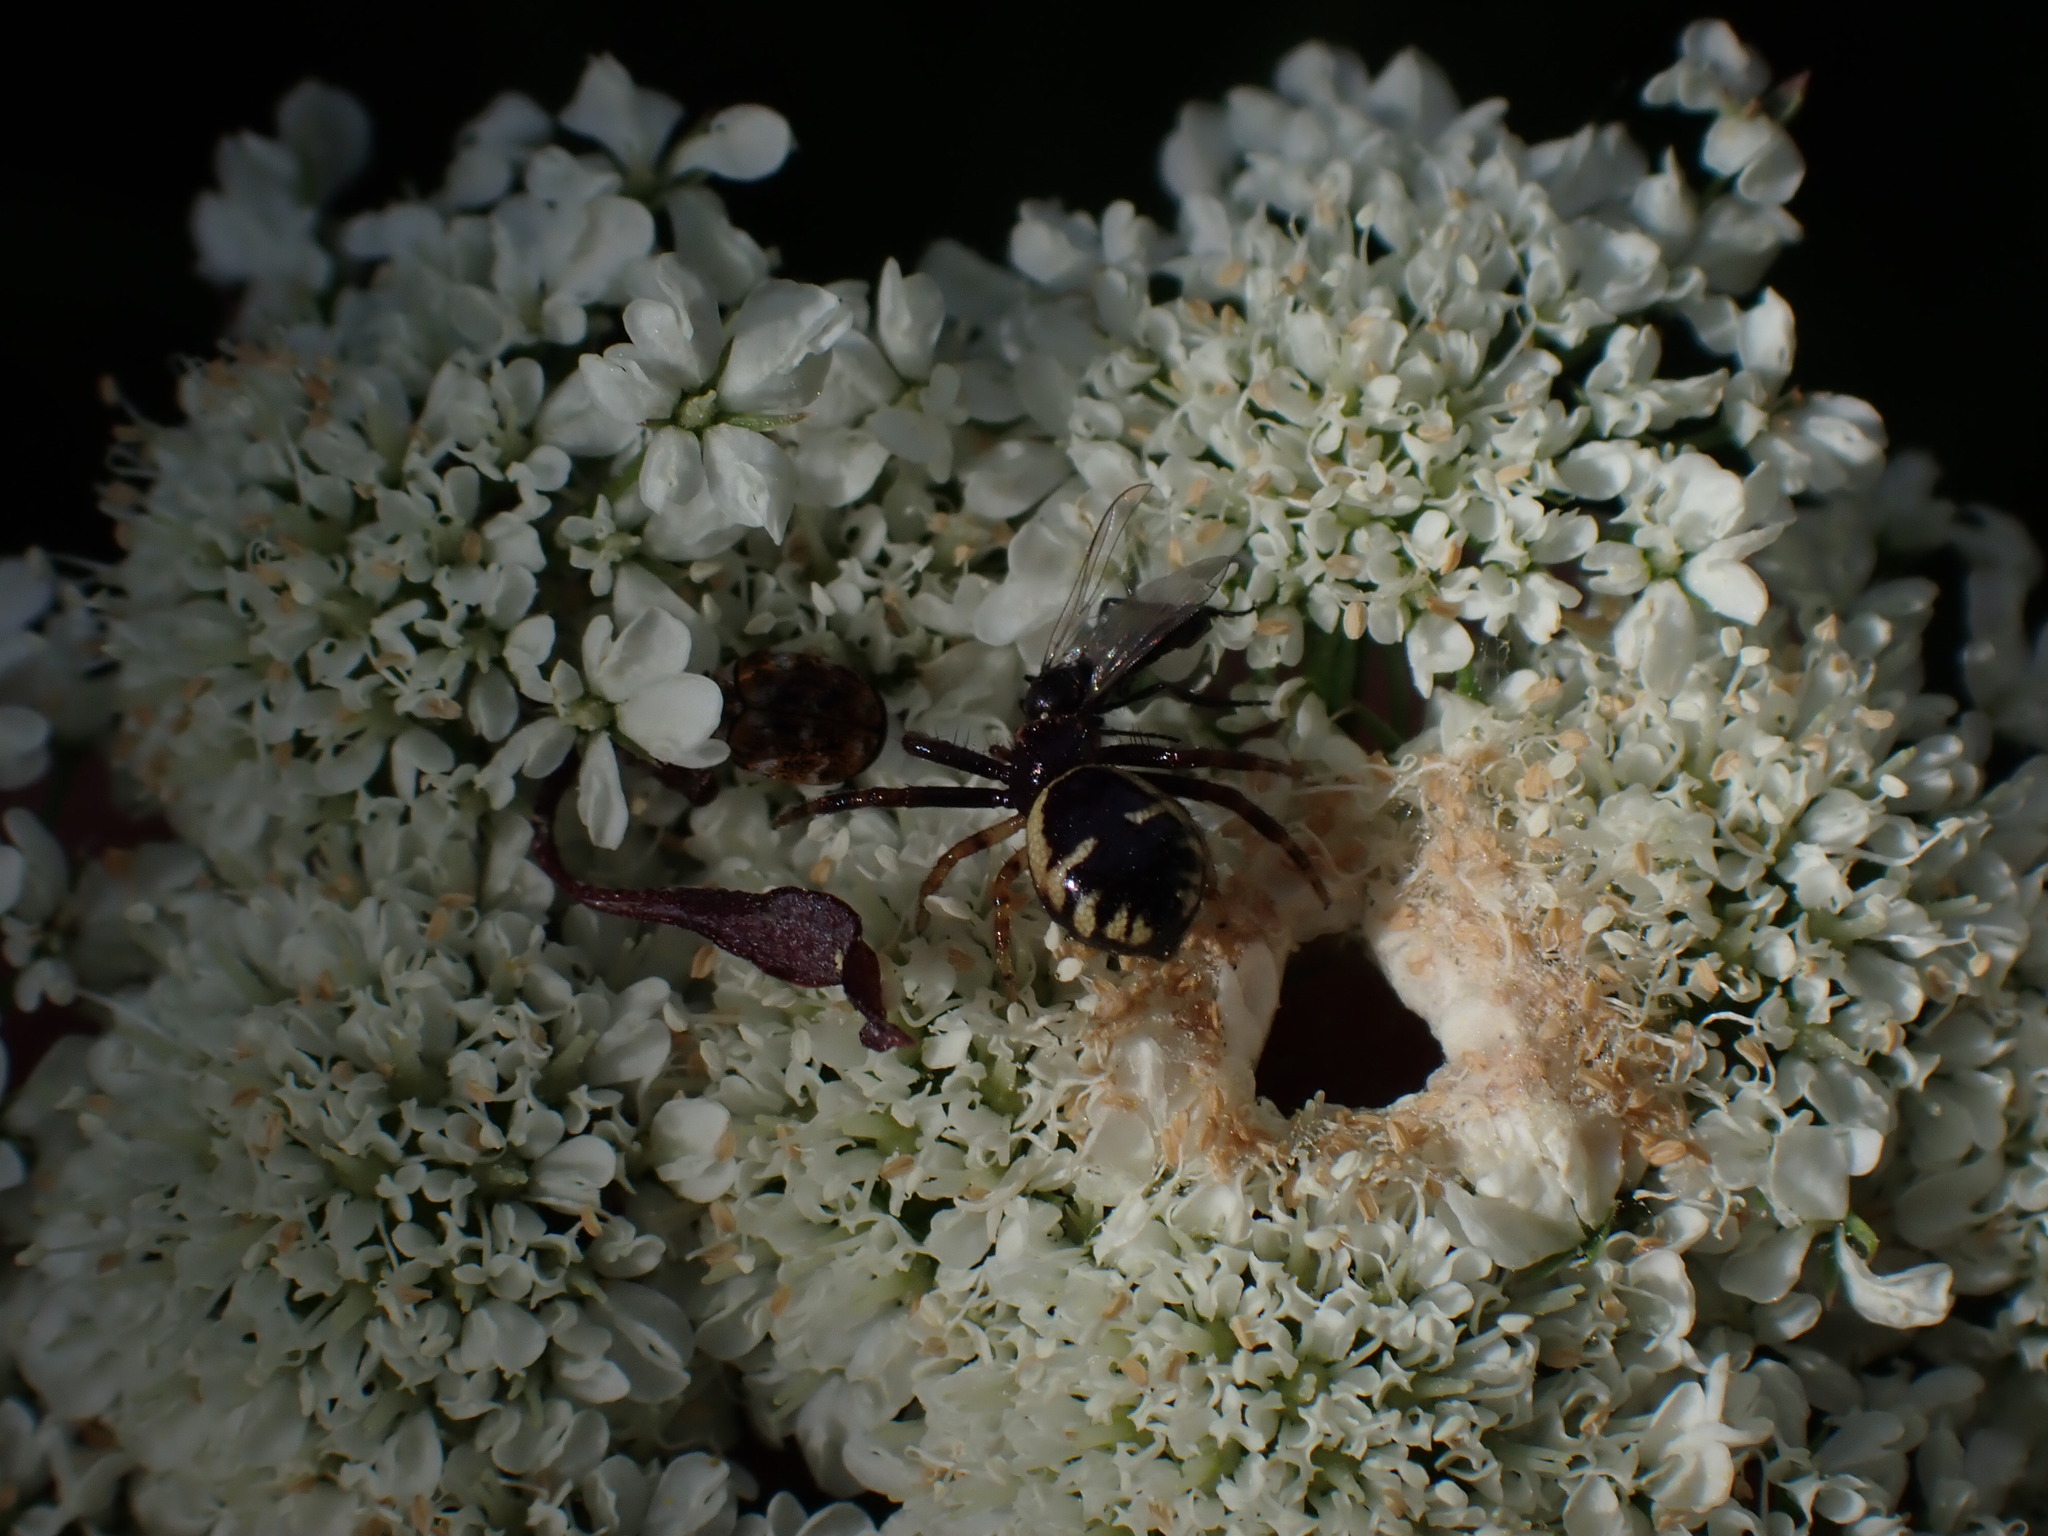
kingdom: Animalia
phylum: Arthropoda
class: Arachnida
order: Araneae
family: Thomisidae
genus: Synema
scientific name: Synema globosum
